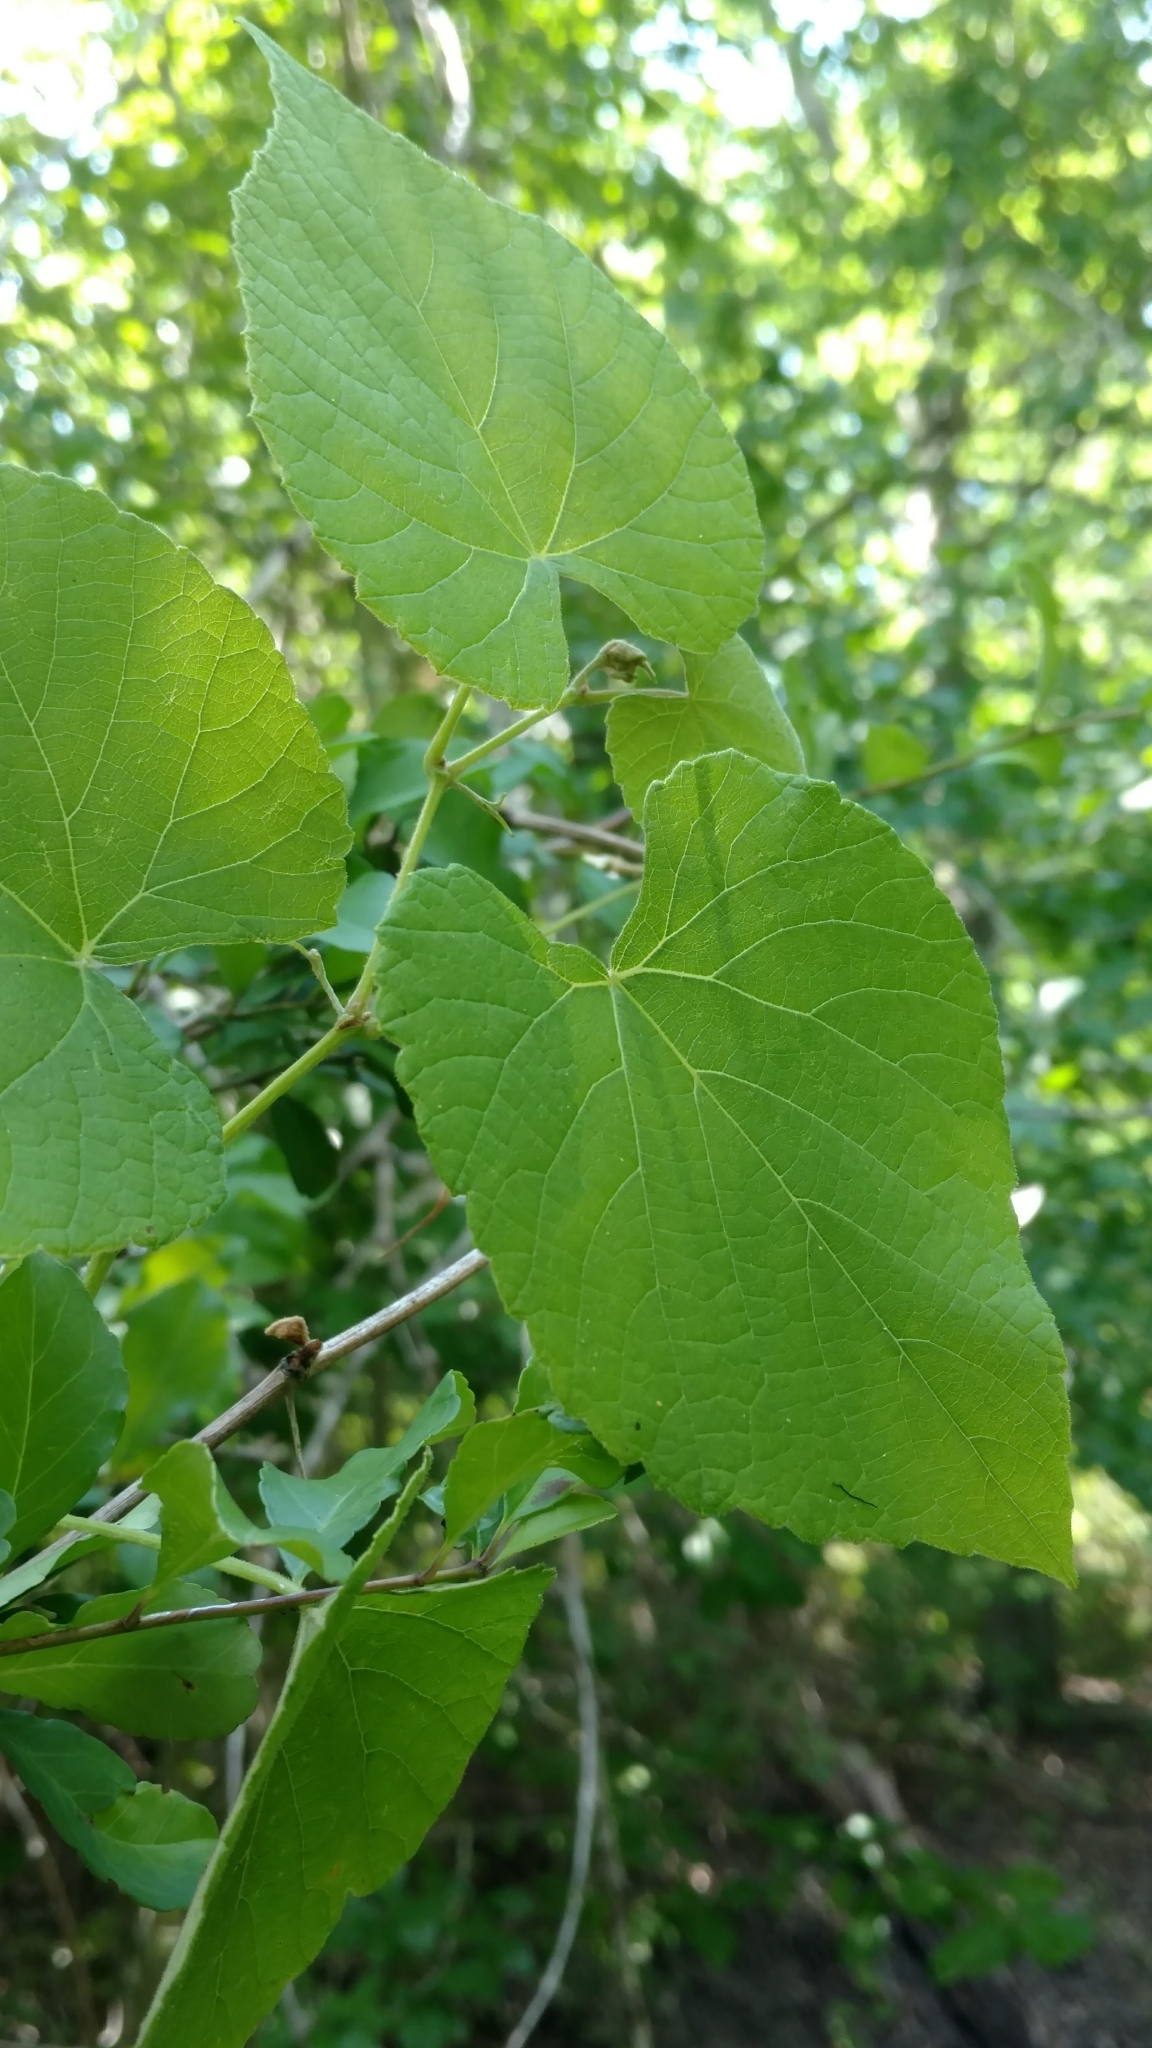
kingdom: Plantae
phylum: Tracheophyta
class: Magnoliopsida
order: Vitales
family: Vitaceae
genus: Vitis
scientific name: Vitis cinerea
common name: Ashy grape
